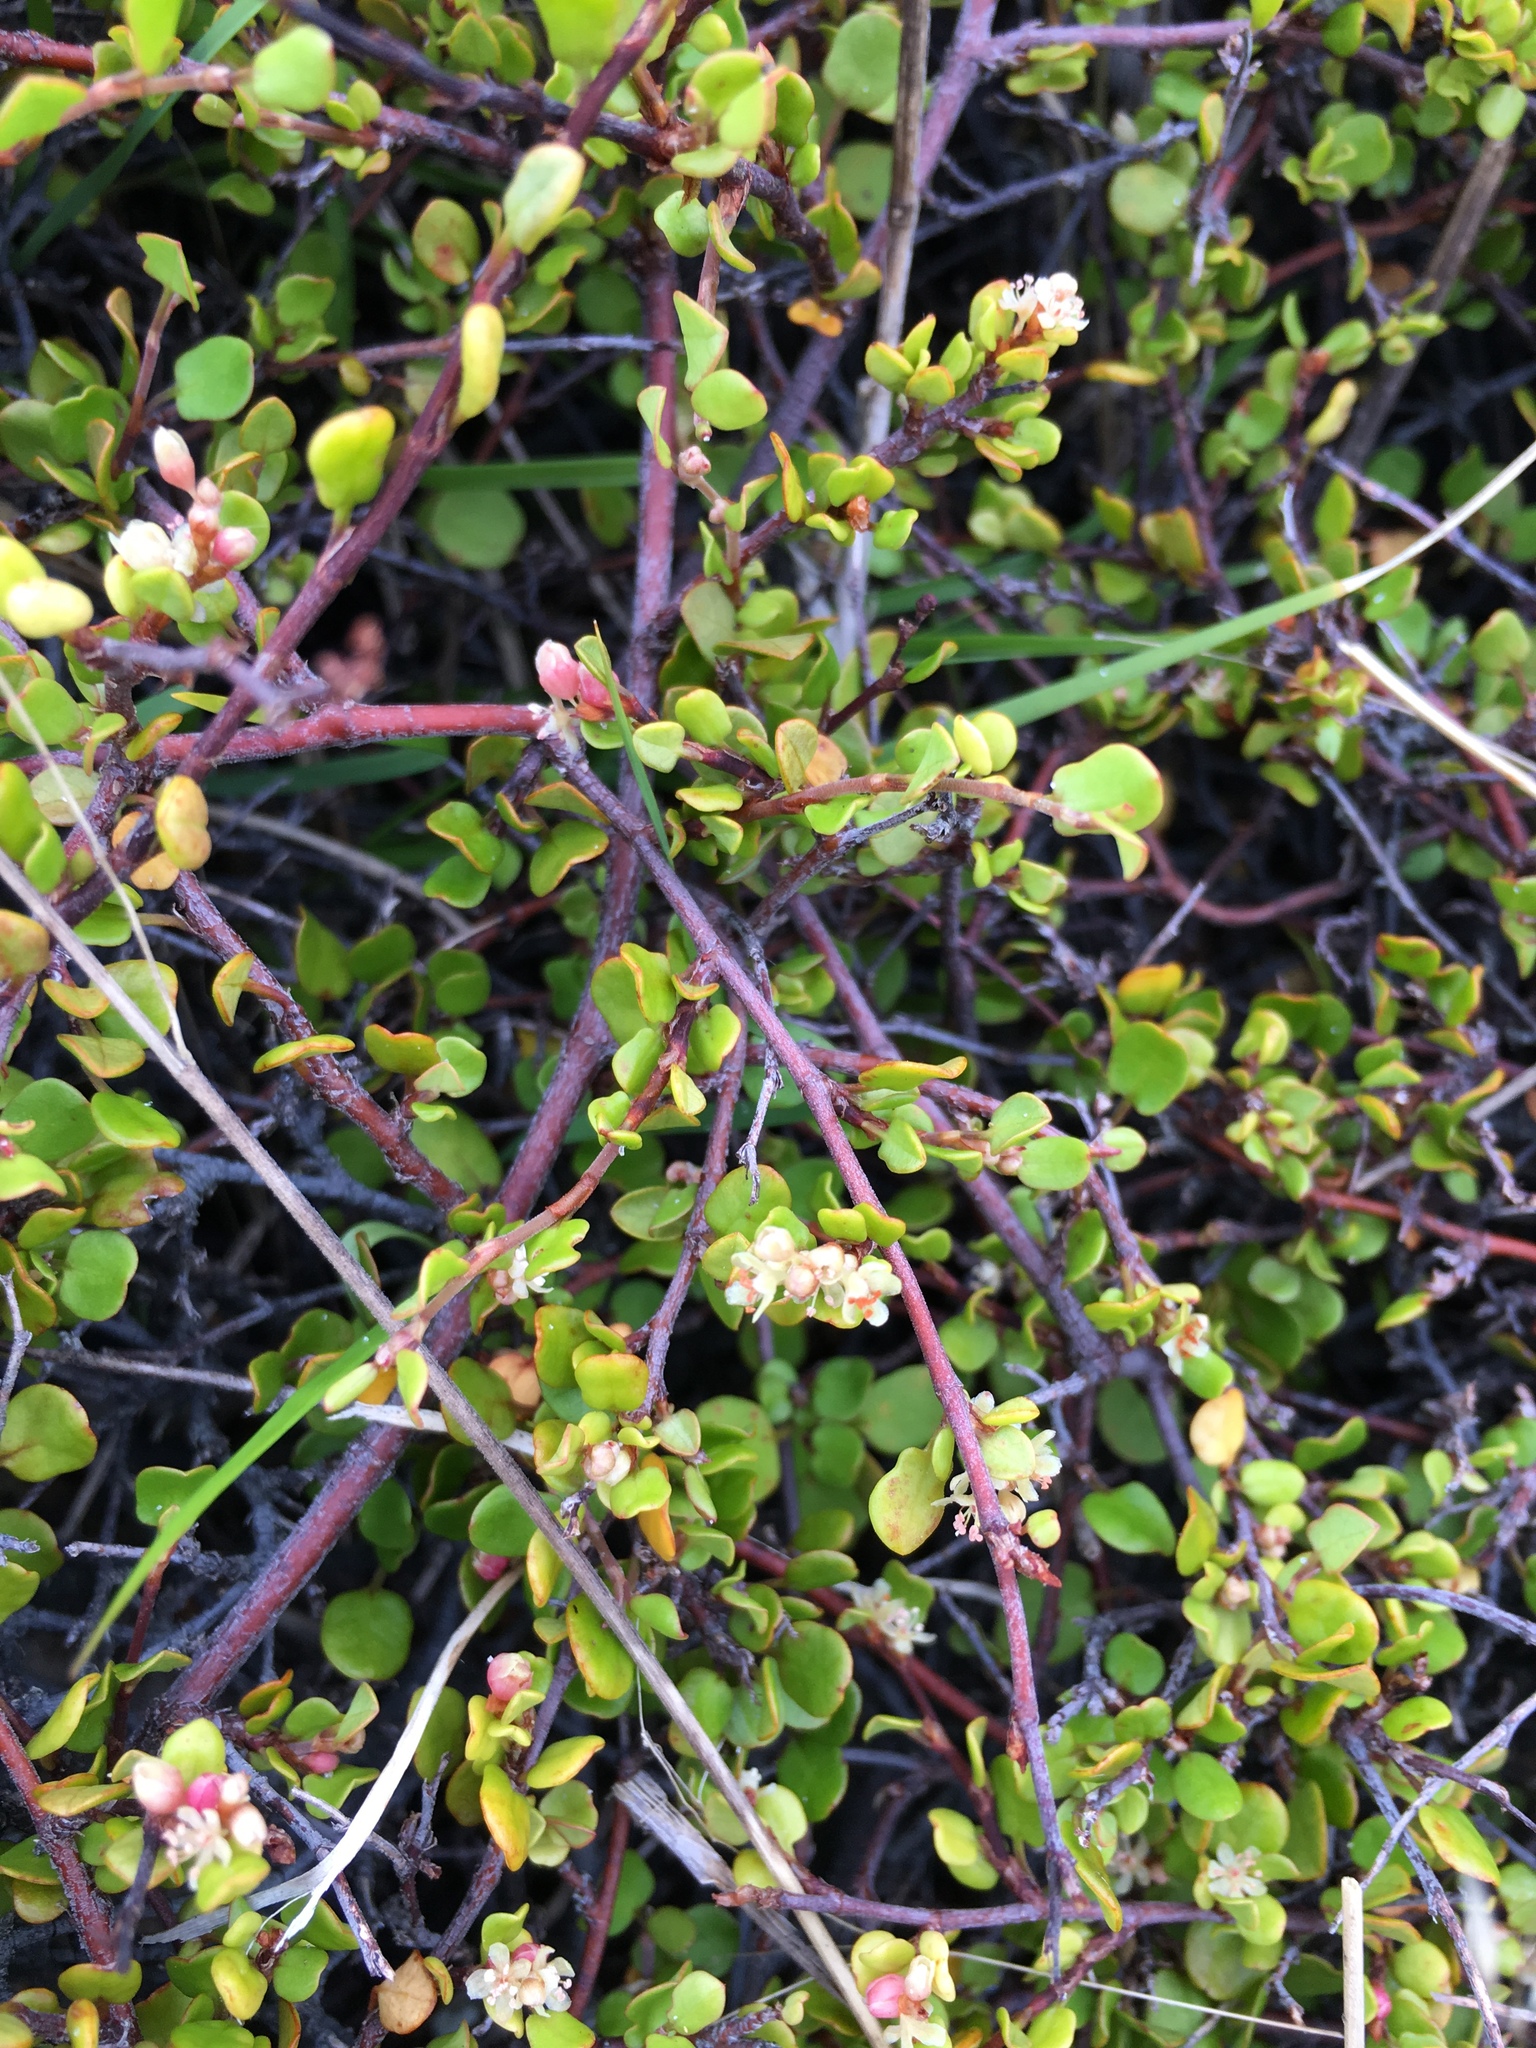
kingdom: Plantae
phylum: Tracheophyta
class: Magnoliopsida
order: Caryophyllales
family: Polygonaceae
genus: Muehlenbeckia
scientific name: Muehlenbeckia complexa
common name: Wireplant
